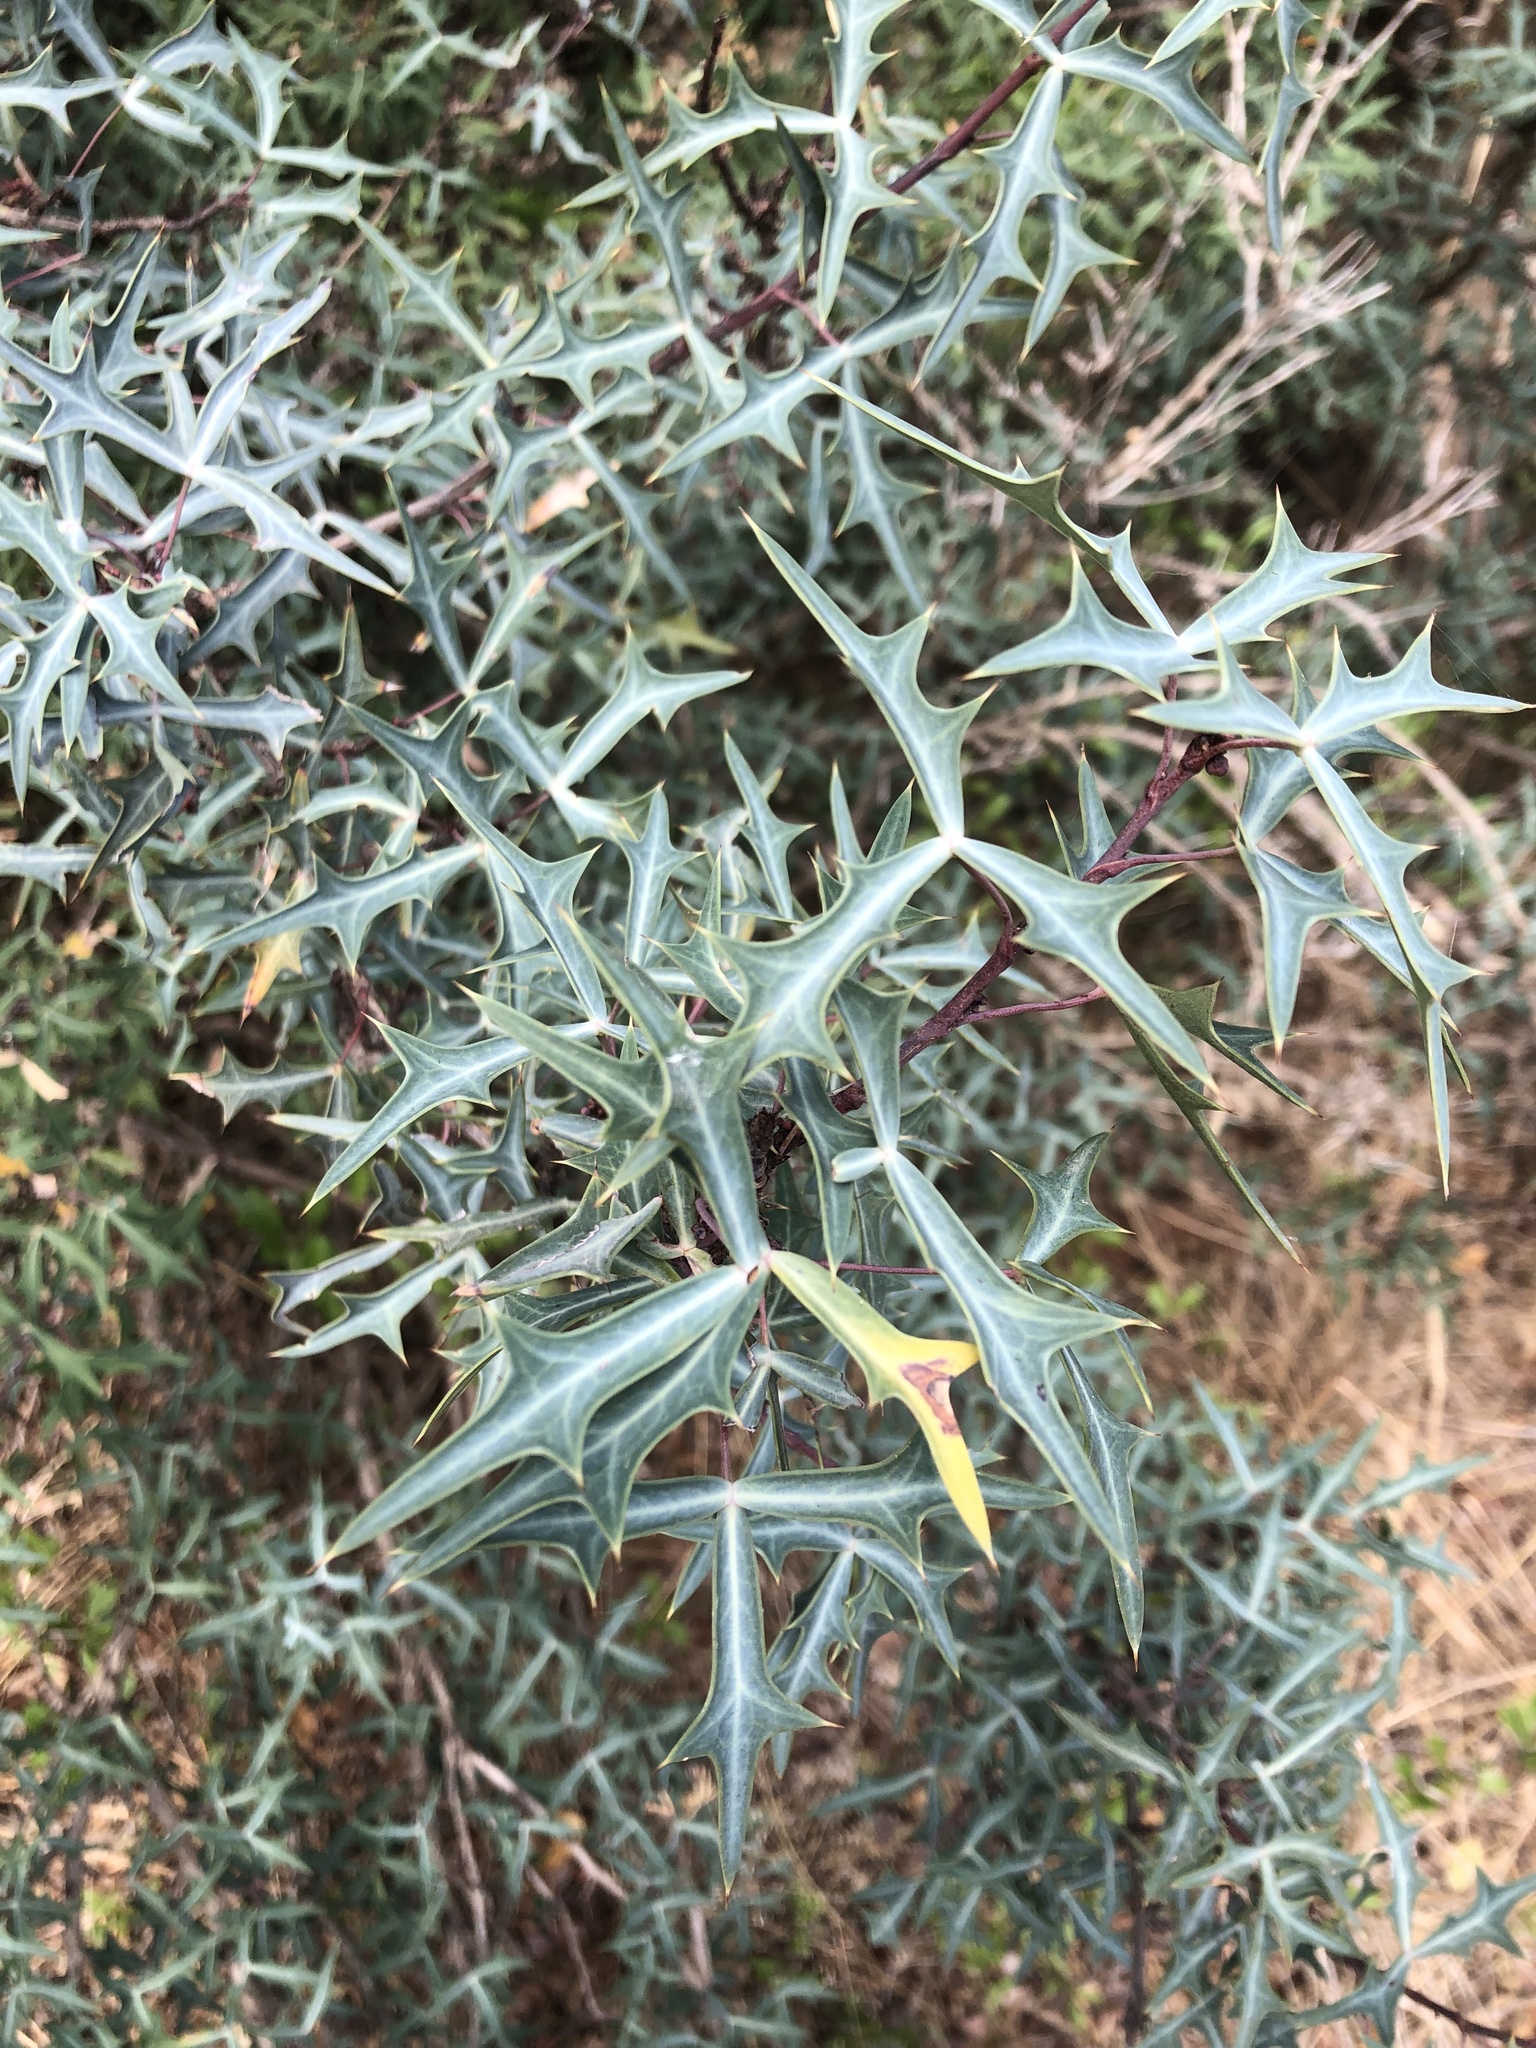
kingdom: Plantae
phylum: Tracheophyta
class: Magnoliopsida
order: Ranunculales
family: Berberidaceae
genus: Alloberberis
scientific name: Alloberberis trifoliolata
